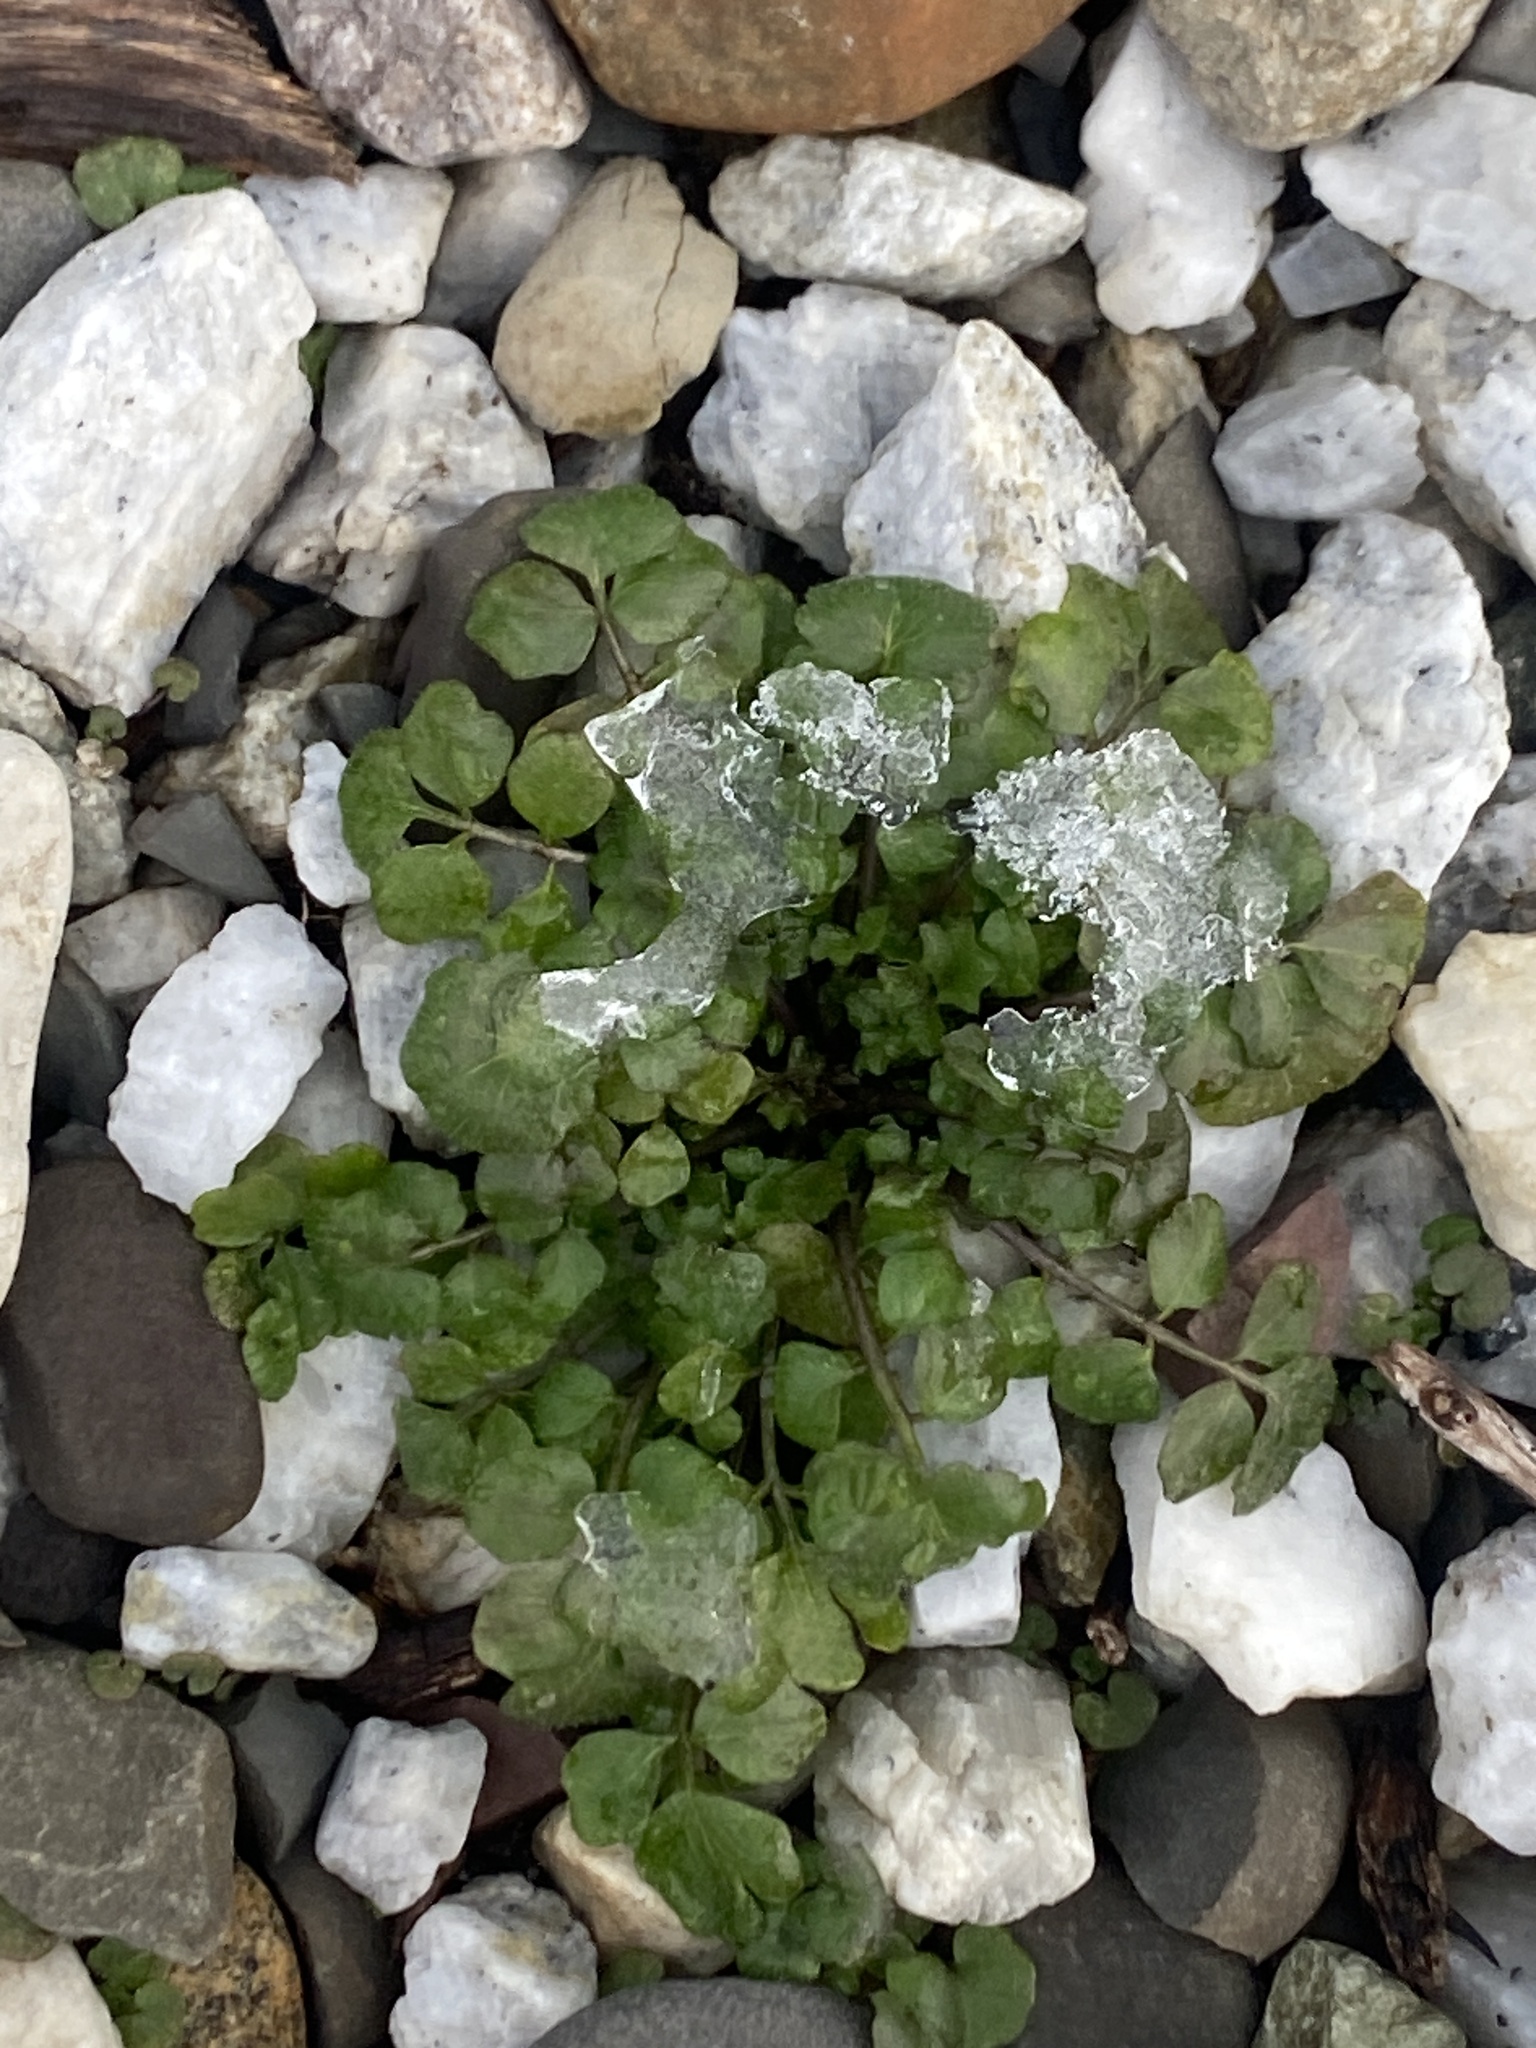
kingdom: Plantae
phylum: Tracheophyta
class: Magnoliopsida
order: Brassicales
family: Brassicaceae
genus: Cardamine
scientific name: Cardamine hirsuta
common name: Hairy bittercress
